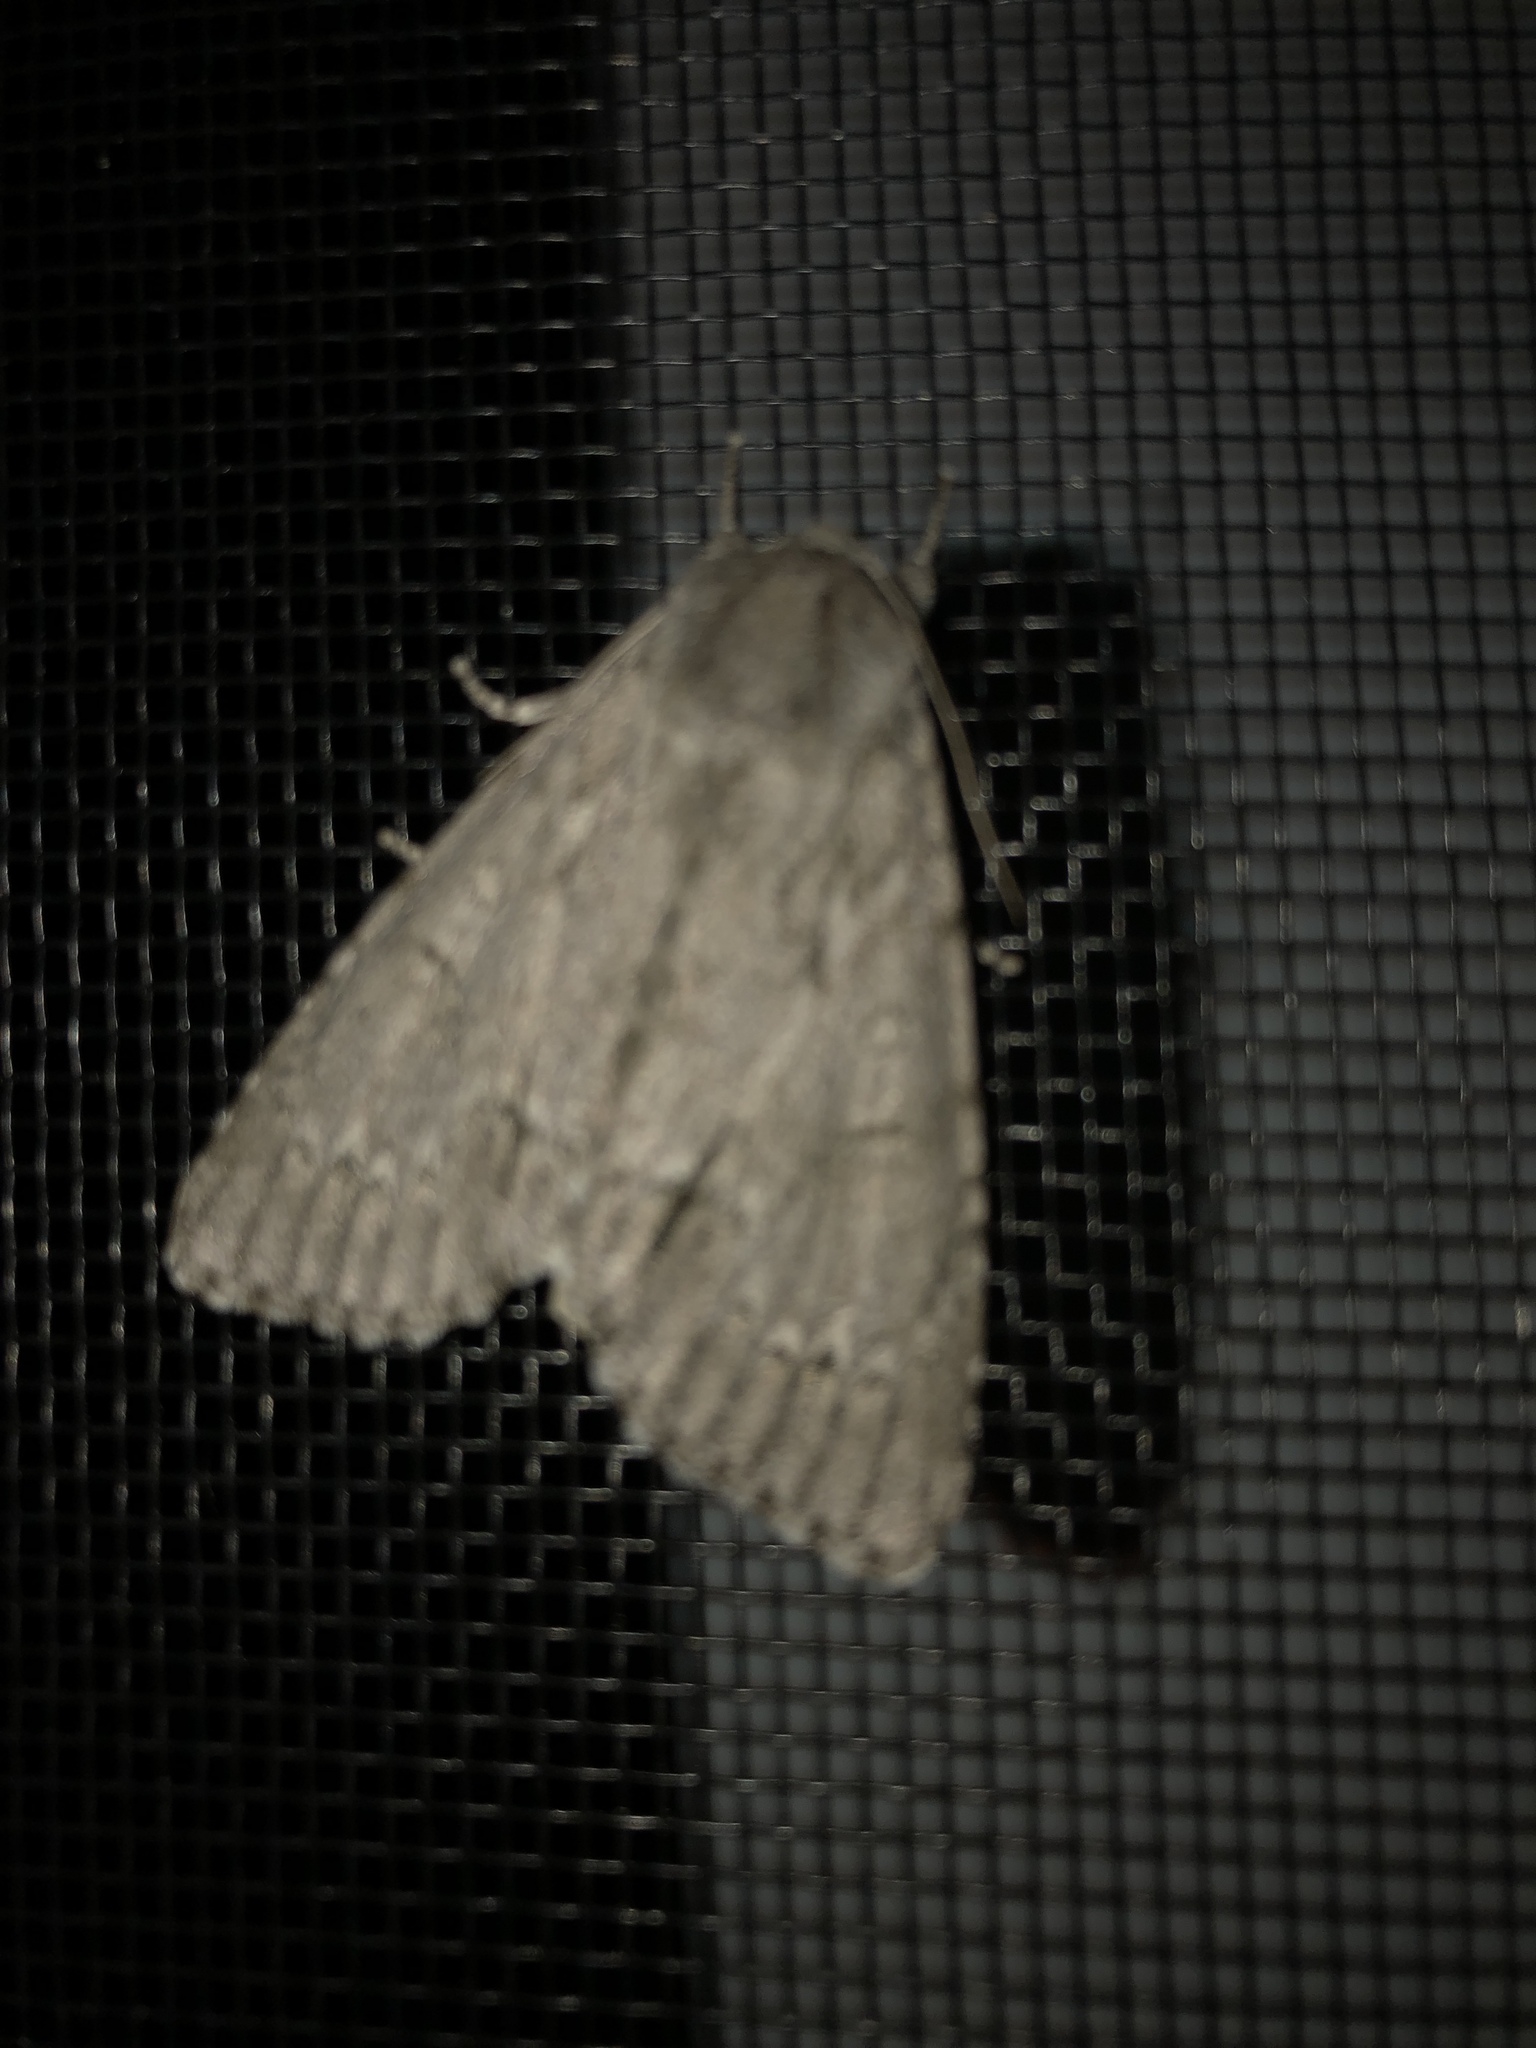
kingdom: Animalia
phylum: Arthropoda
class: Insecta
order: Lepidoptera
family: Noctuidae
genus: Acronicta
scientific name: Acronicta americana
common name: American dagger
